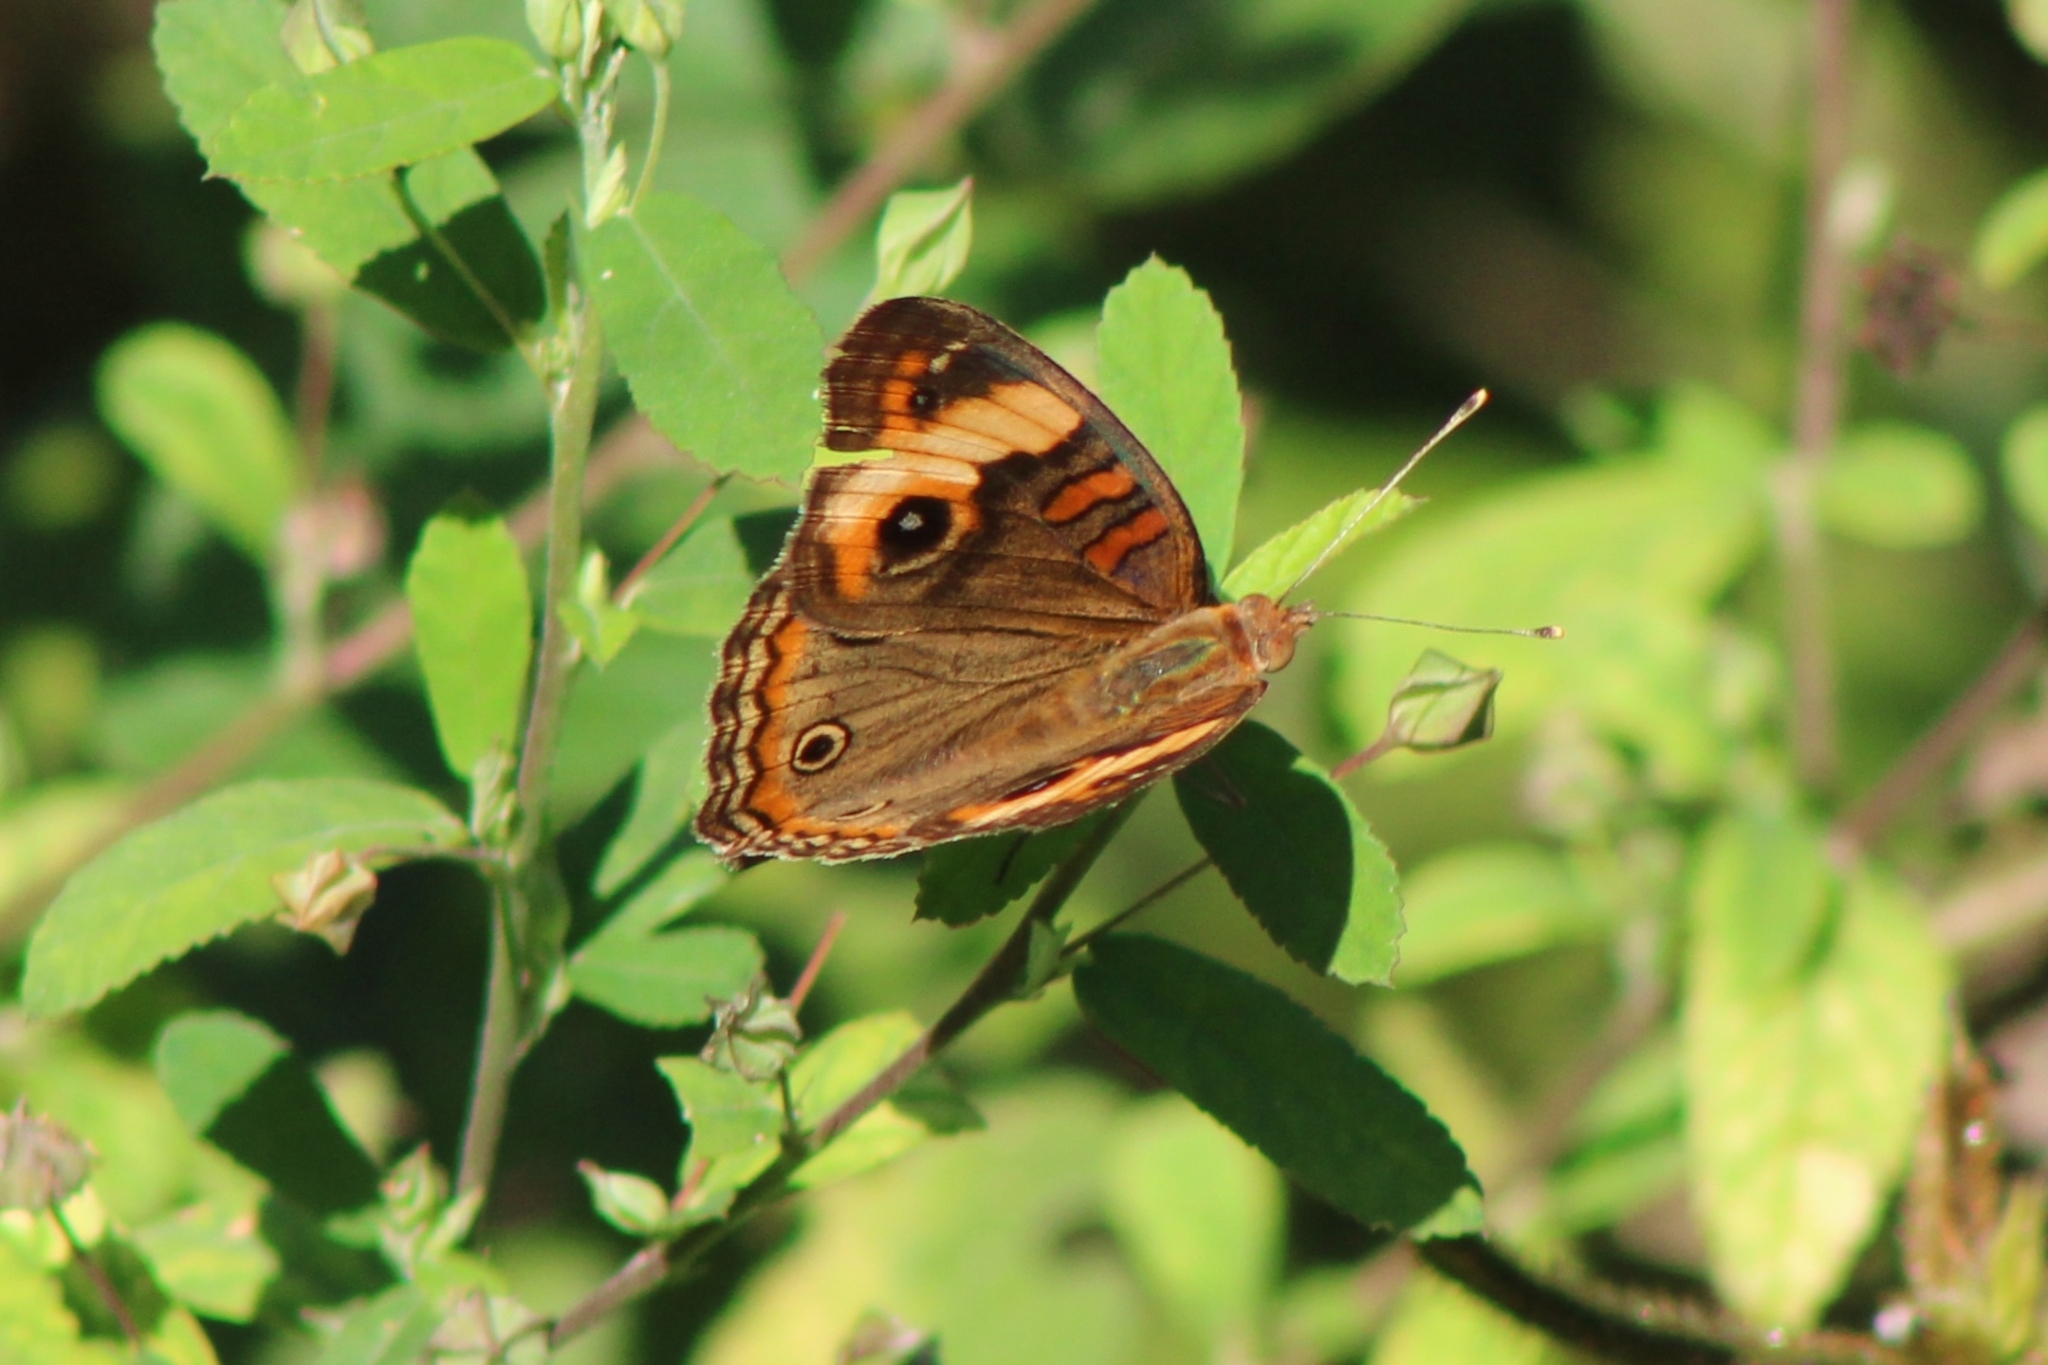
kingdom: Animalia
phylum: Arthropoda
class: Insecta
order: Lepidoptera
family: Nymphalidae
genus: Junonia
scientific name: Junonia lavinia
